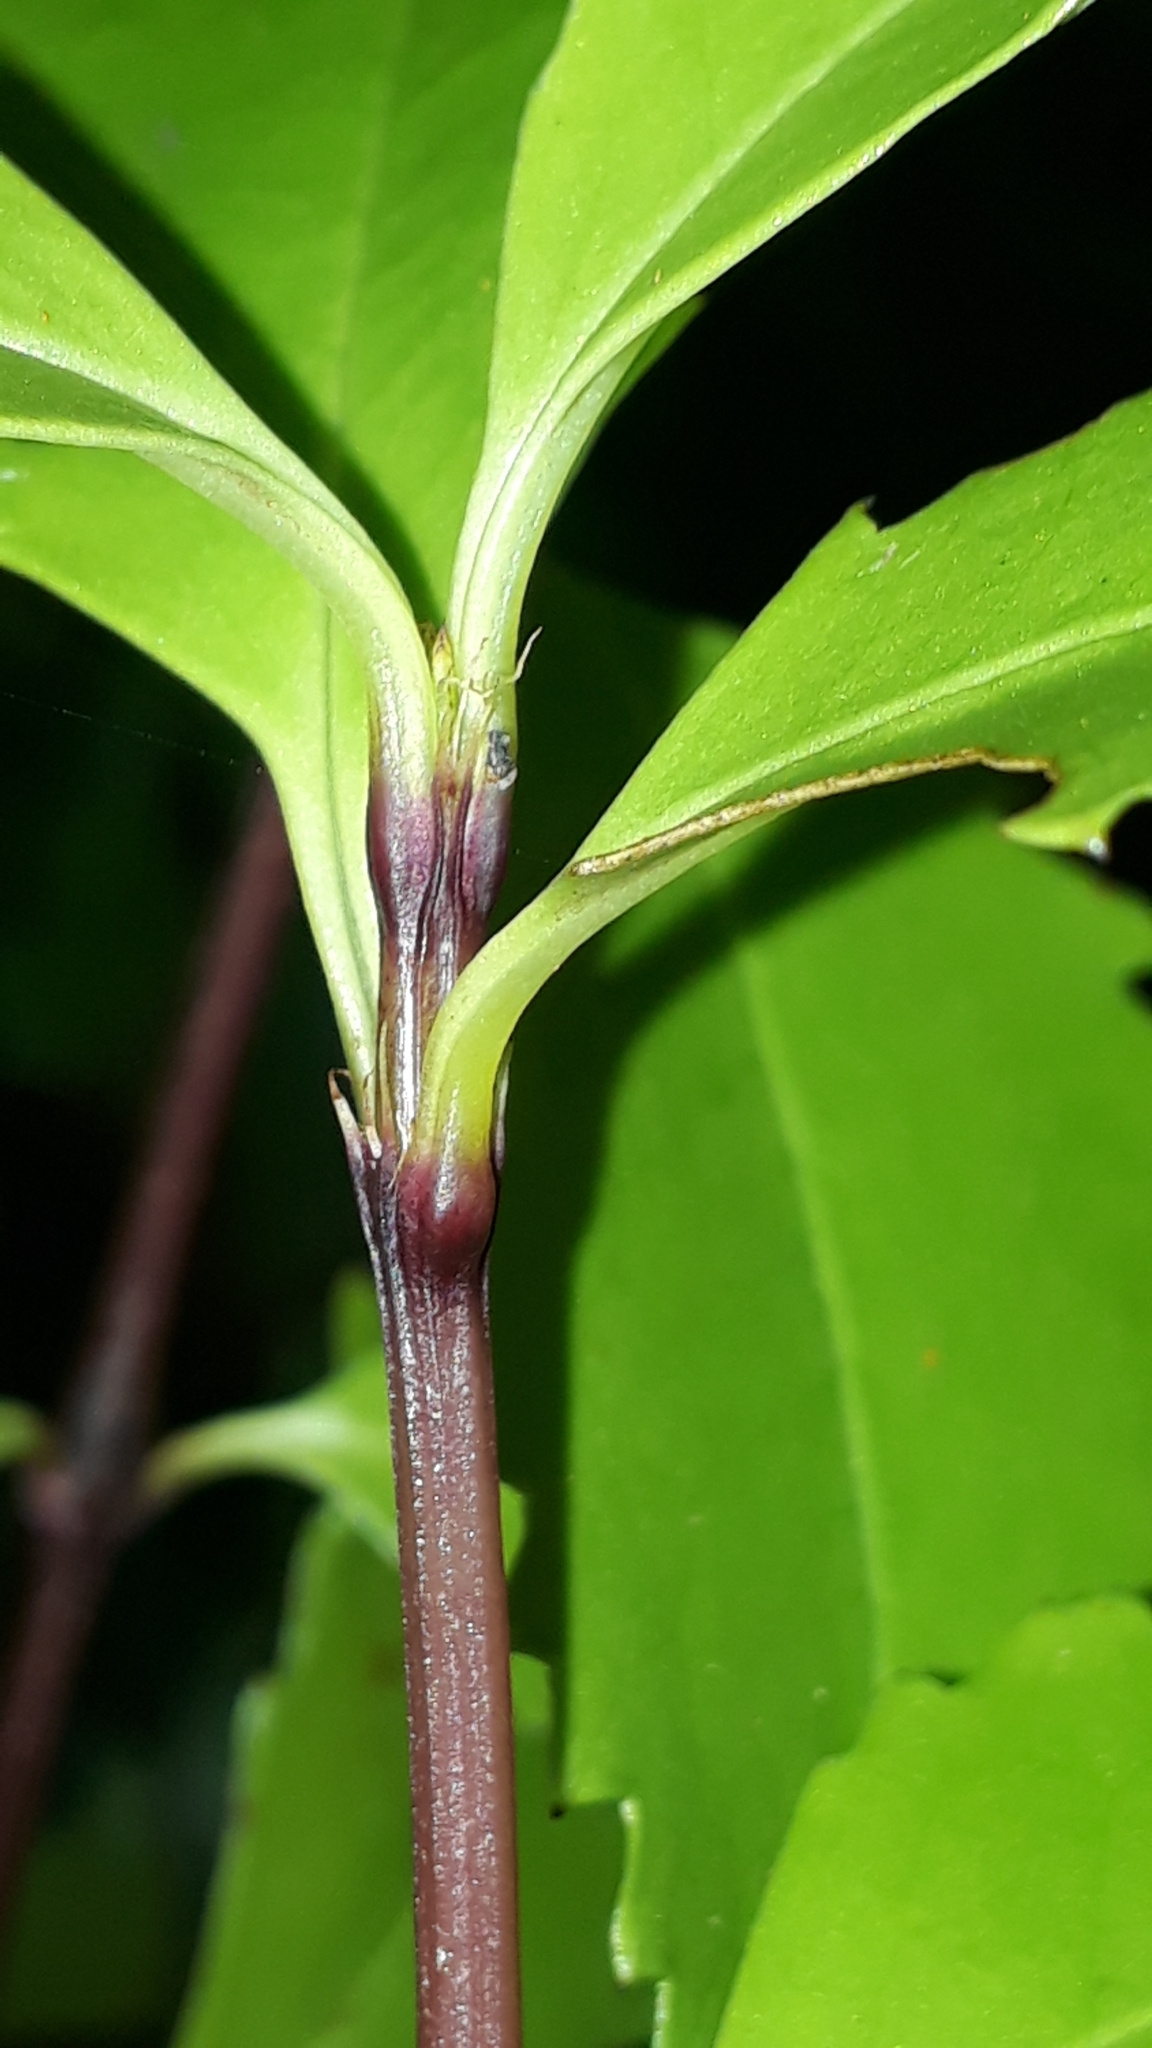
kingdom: Plantae
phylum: Tracheophyta
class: Magnoliopsida
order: Chloranthales
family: Chloranthaceae
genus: Ascarina
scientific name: Ascarina lucida
